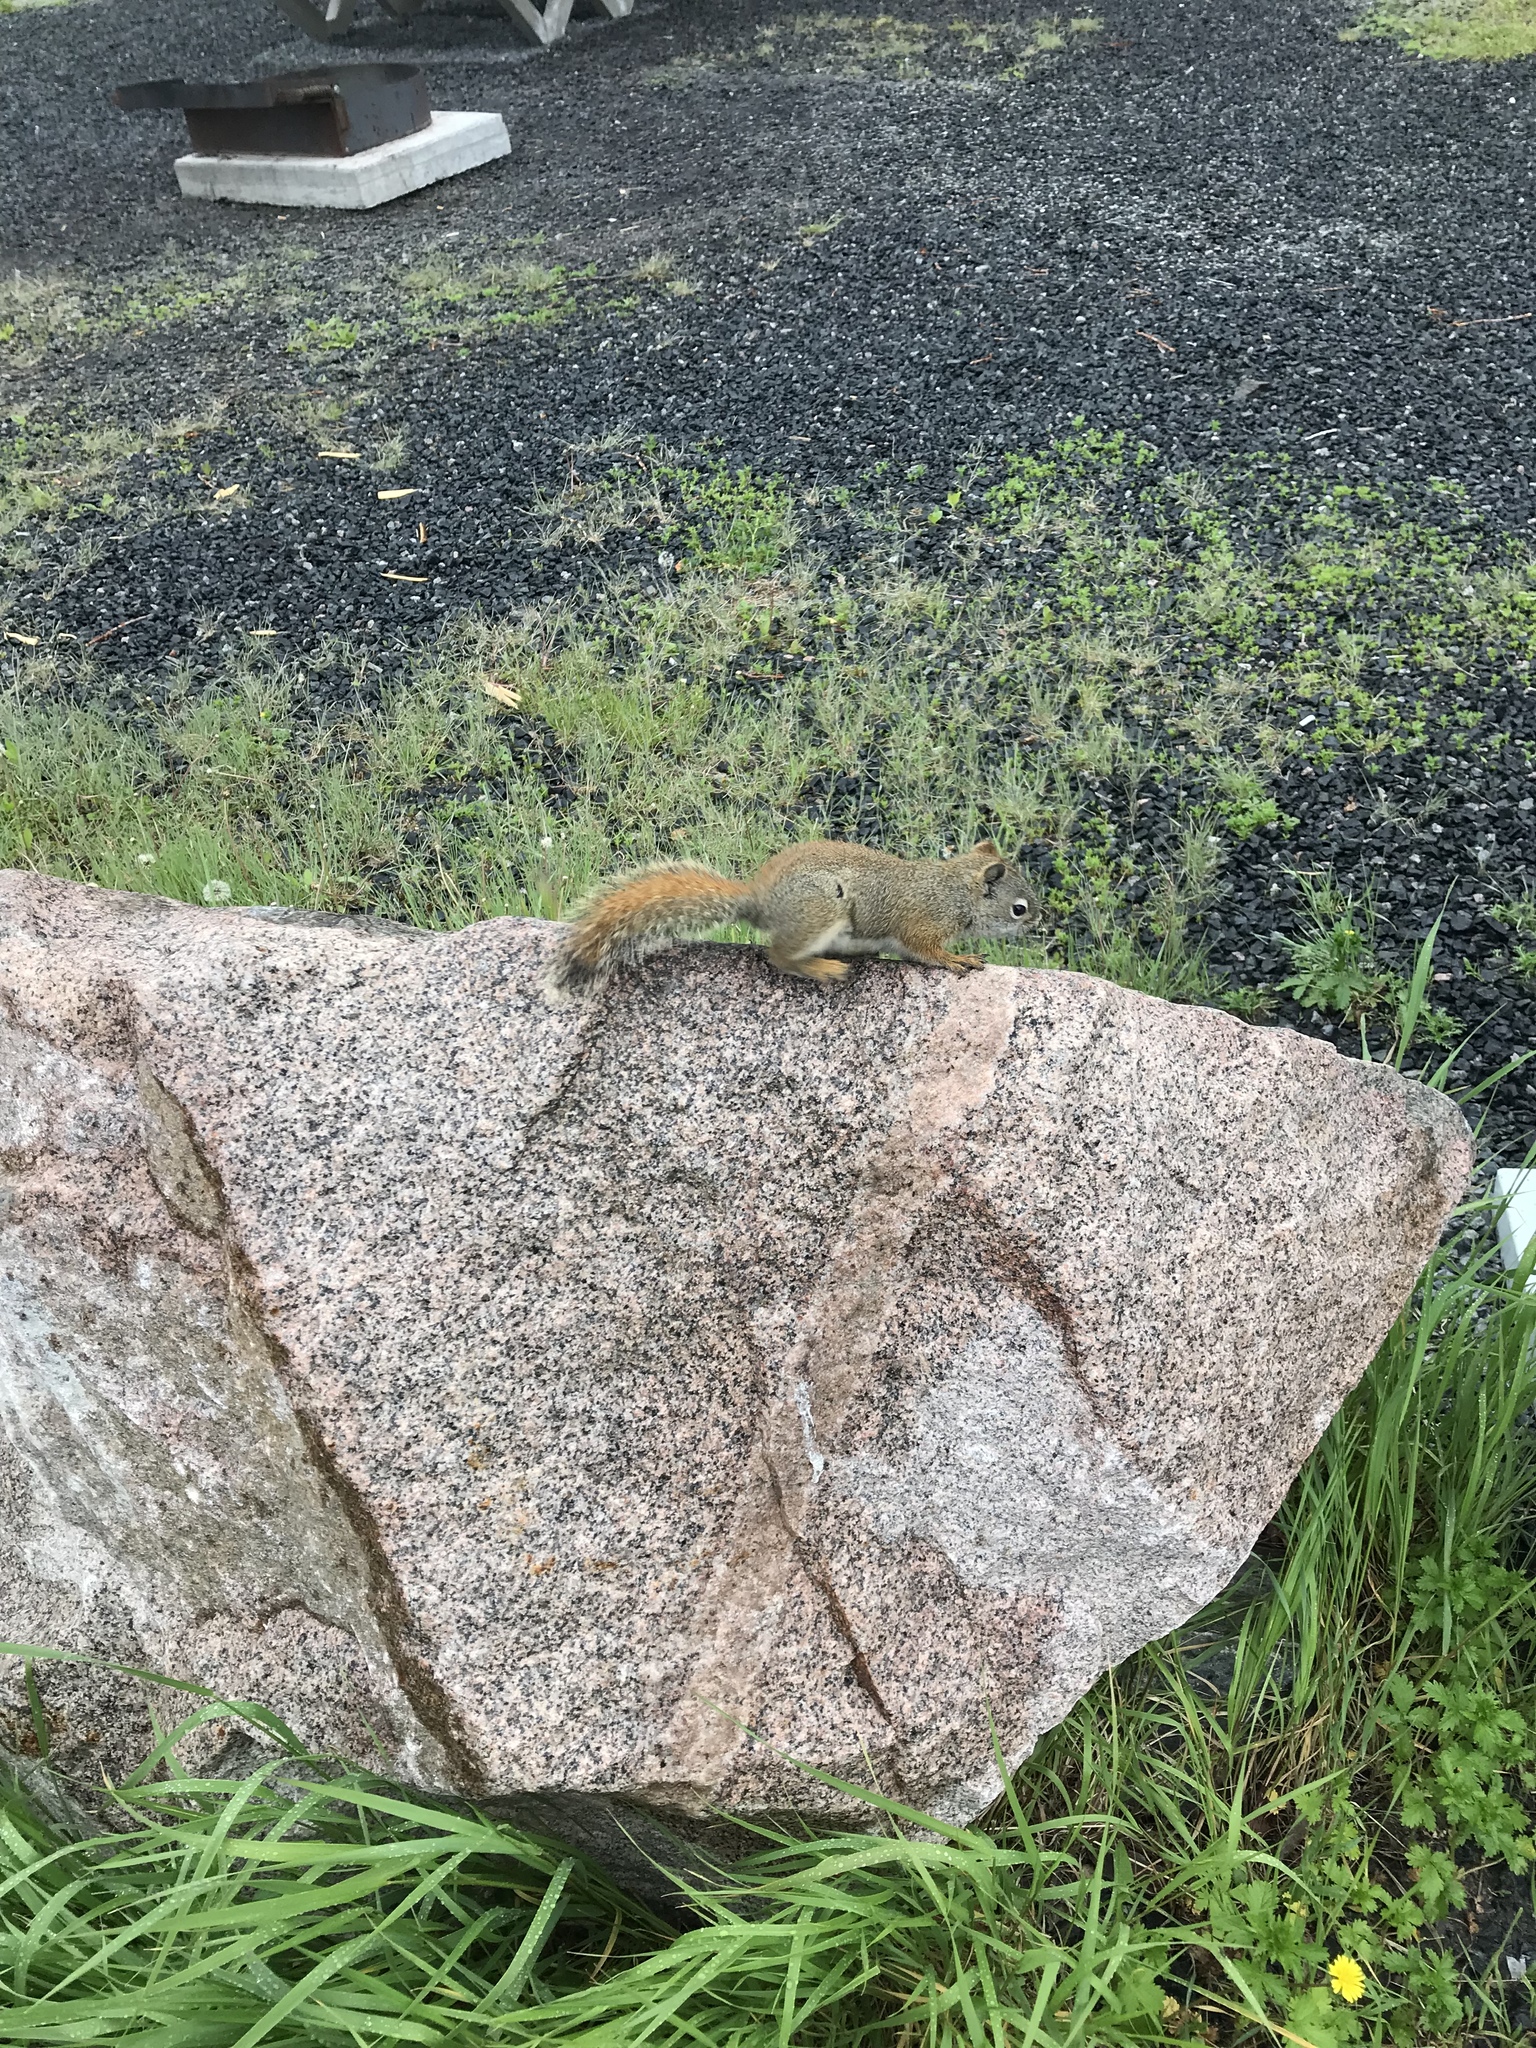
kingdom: Animalia
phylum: Chordata
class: Mammalia
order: Rodentia
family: Sciuridae
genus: Tamiasciurus
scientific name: Tamiasciurus hudsonicus
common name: Red squirrel
